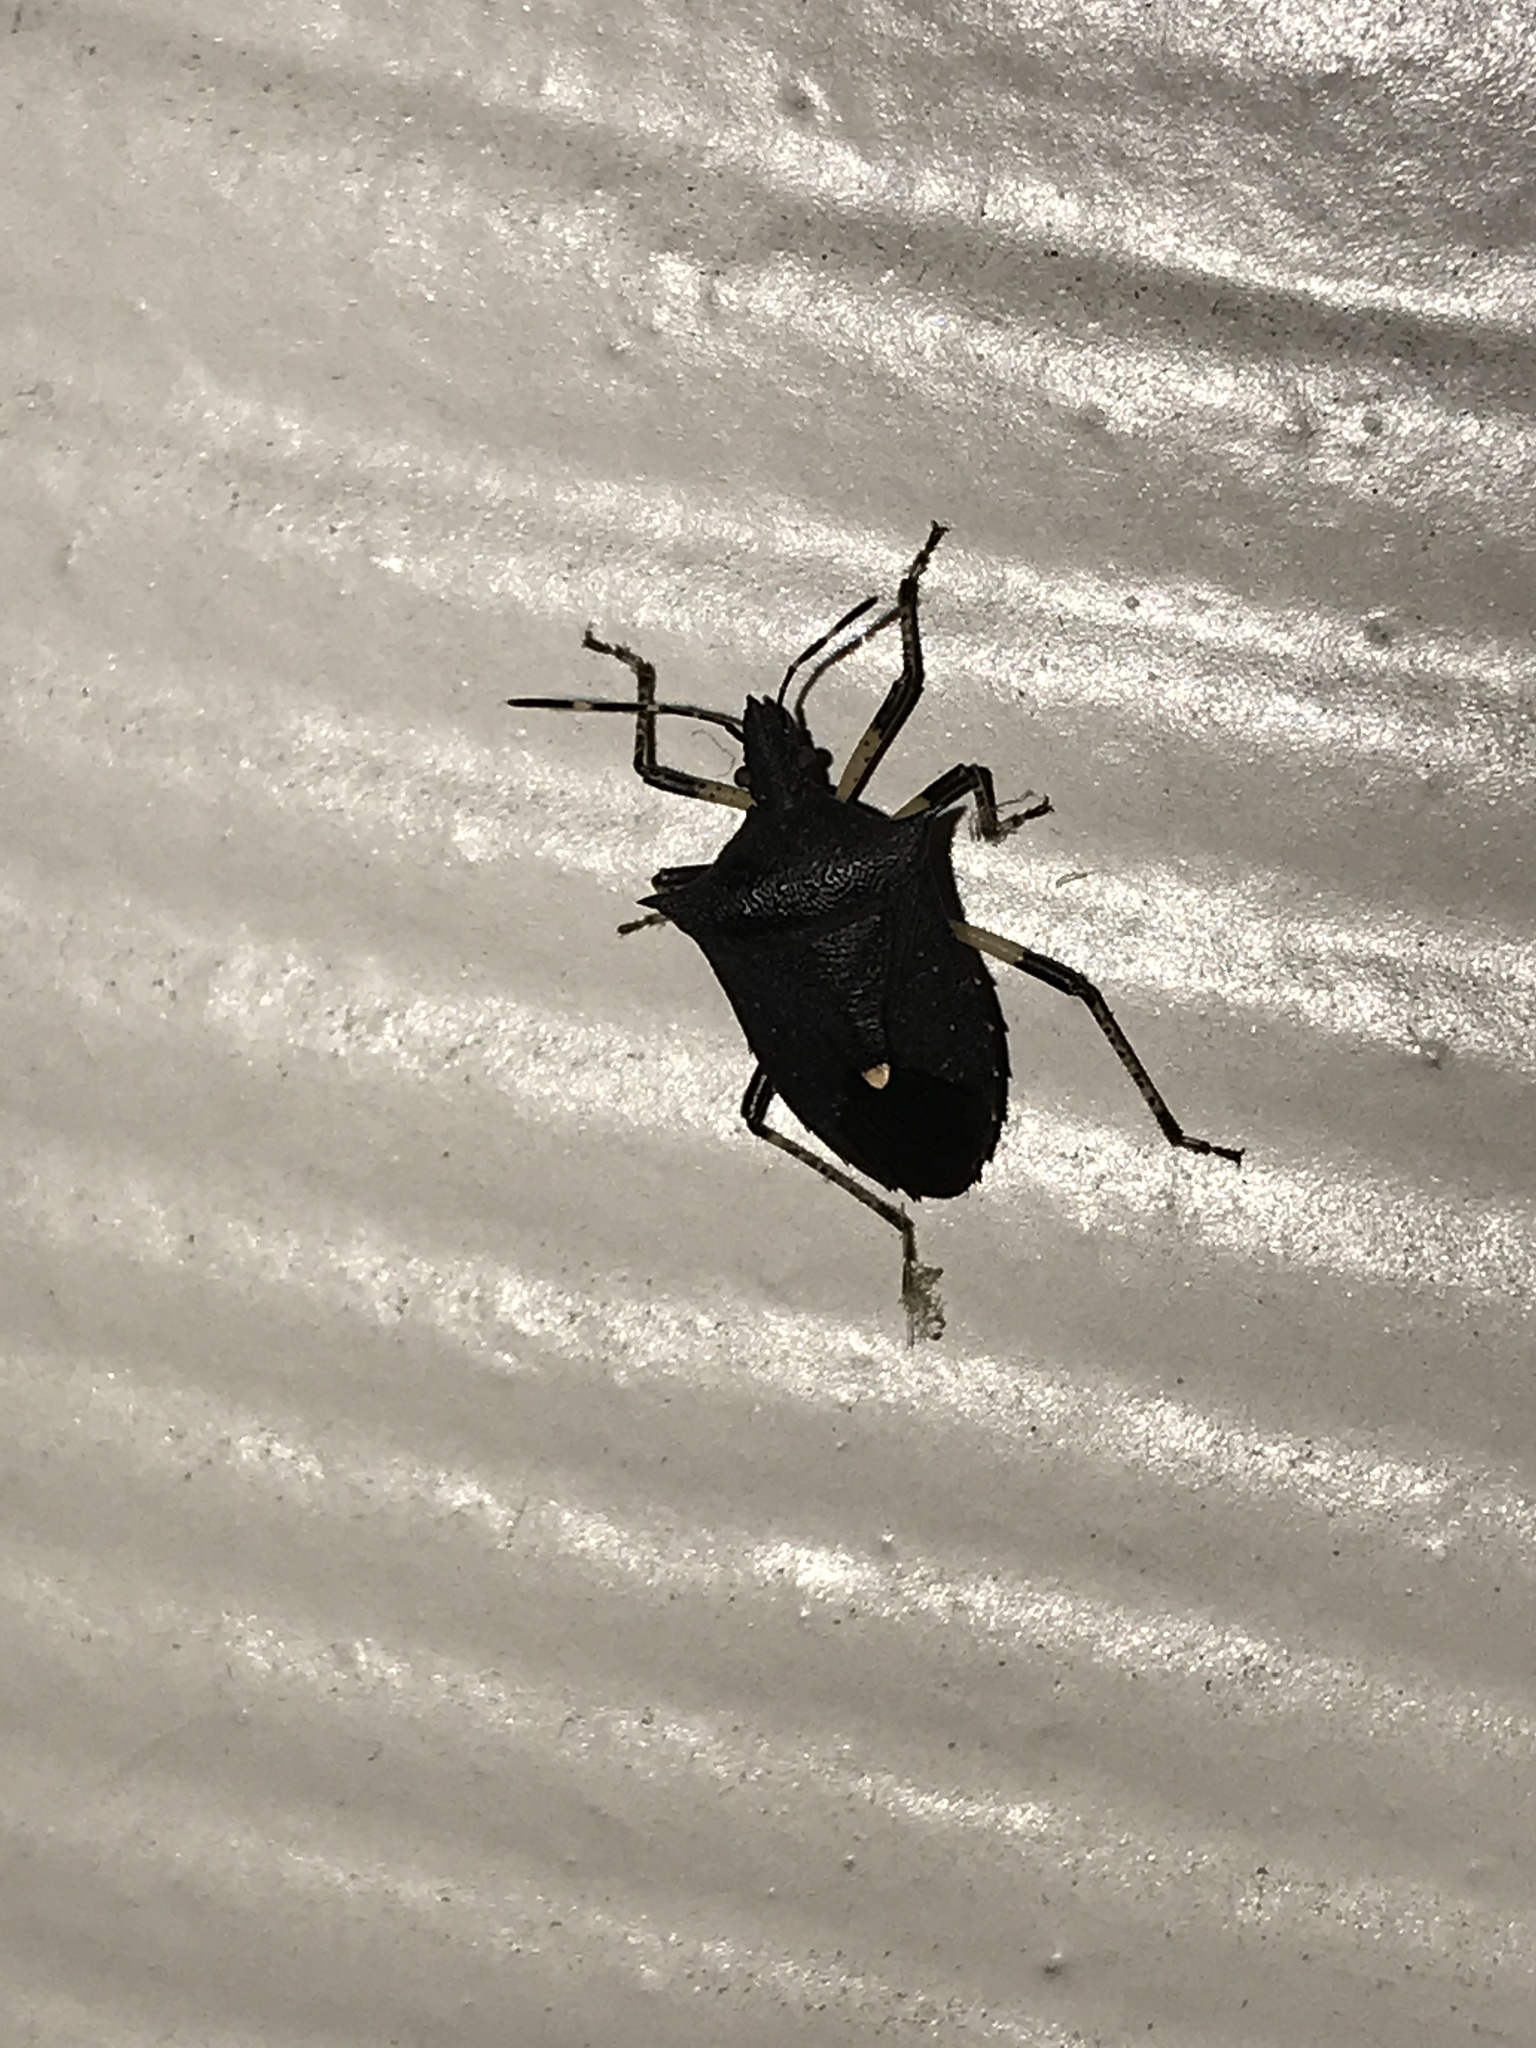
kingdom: Animalia
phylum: Arthropoda
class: Insecta
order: Hemiptera
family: Pentatomidae
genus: Proxys
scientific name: Proxys punctulatus
